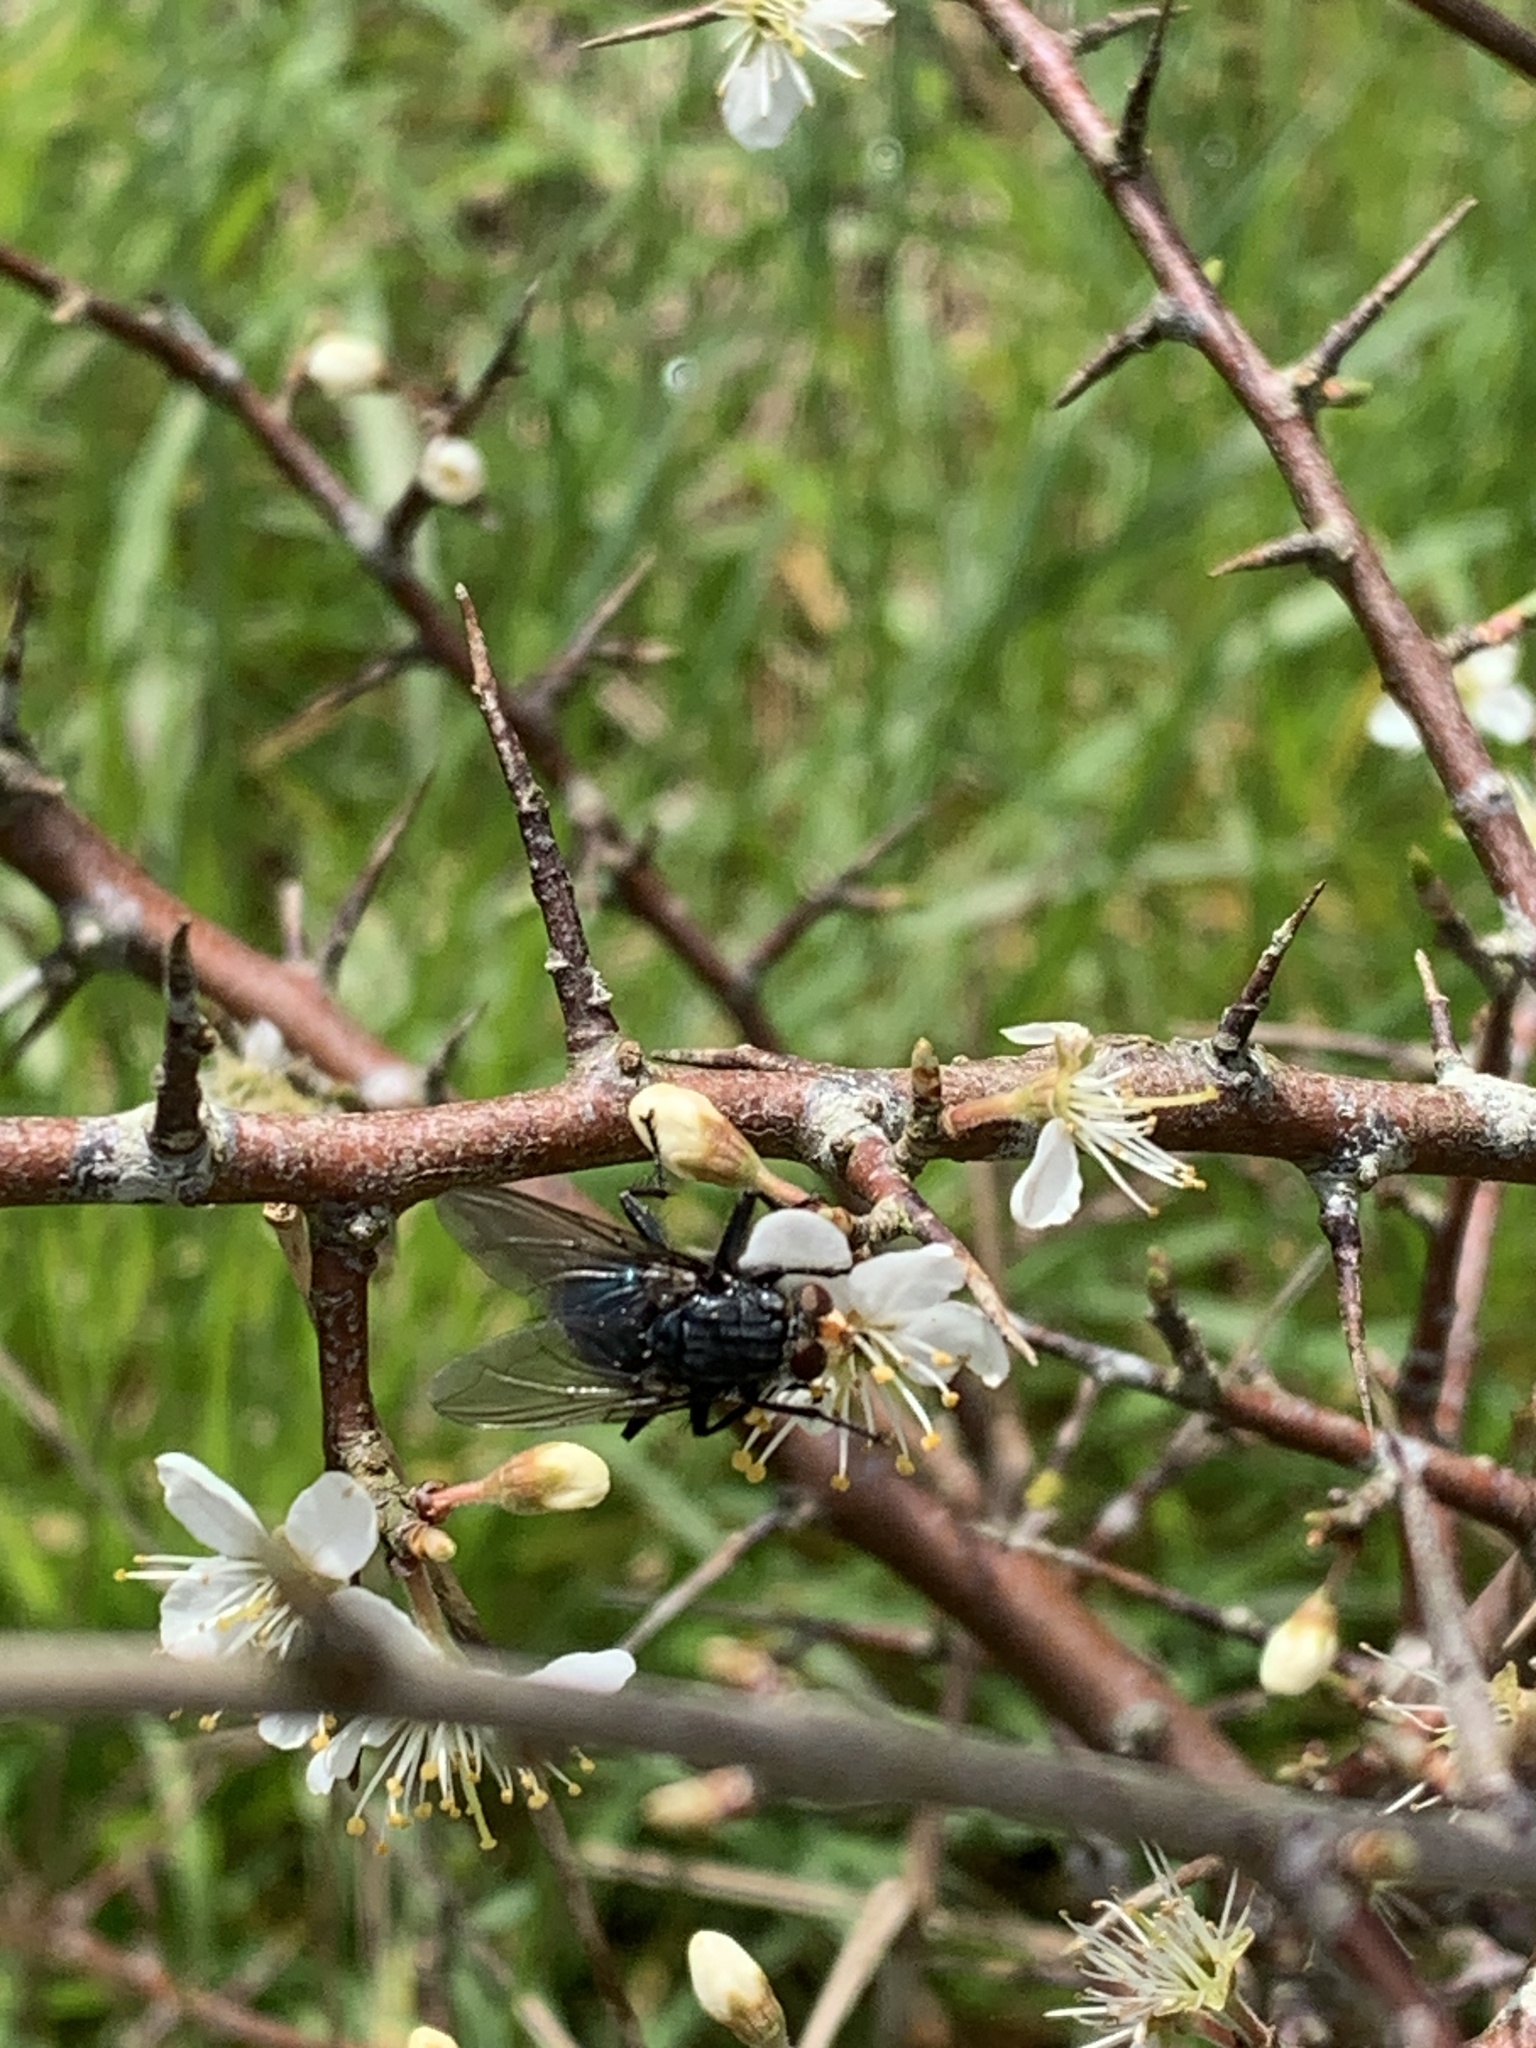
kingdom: Animalia
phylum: Arthropoda
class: Insecta
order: Diptera
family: Calliphoridae
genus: Cynomya
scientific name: Cynomya mortuorum
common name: Bluebottle blow fly
